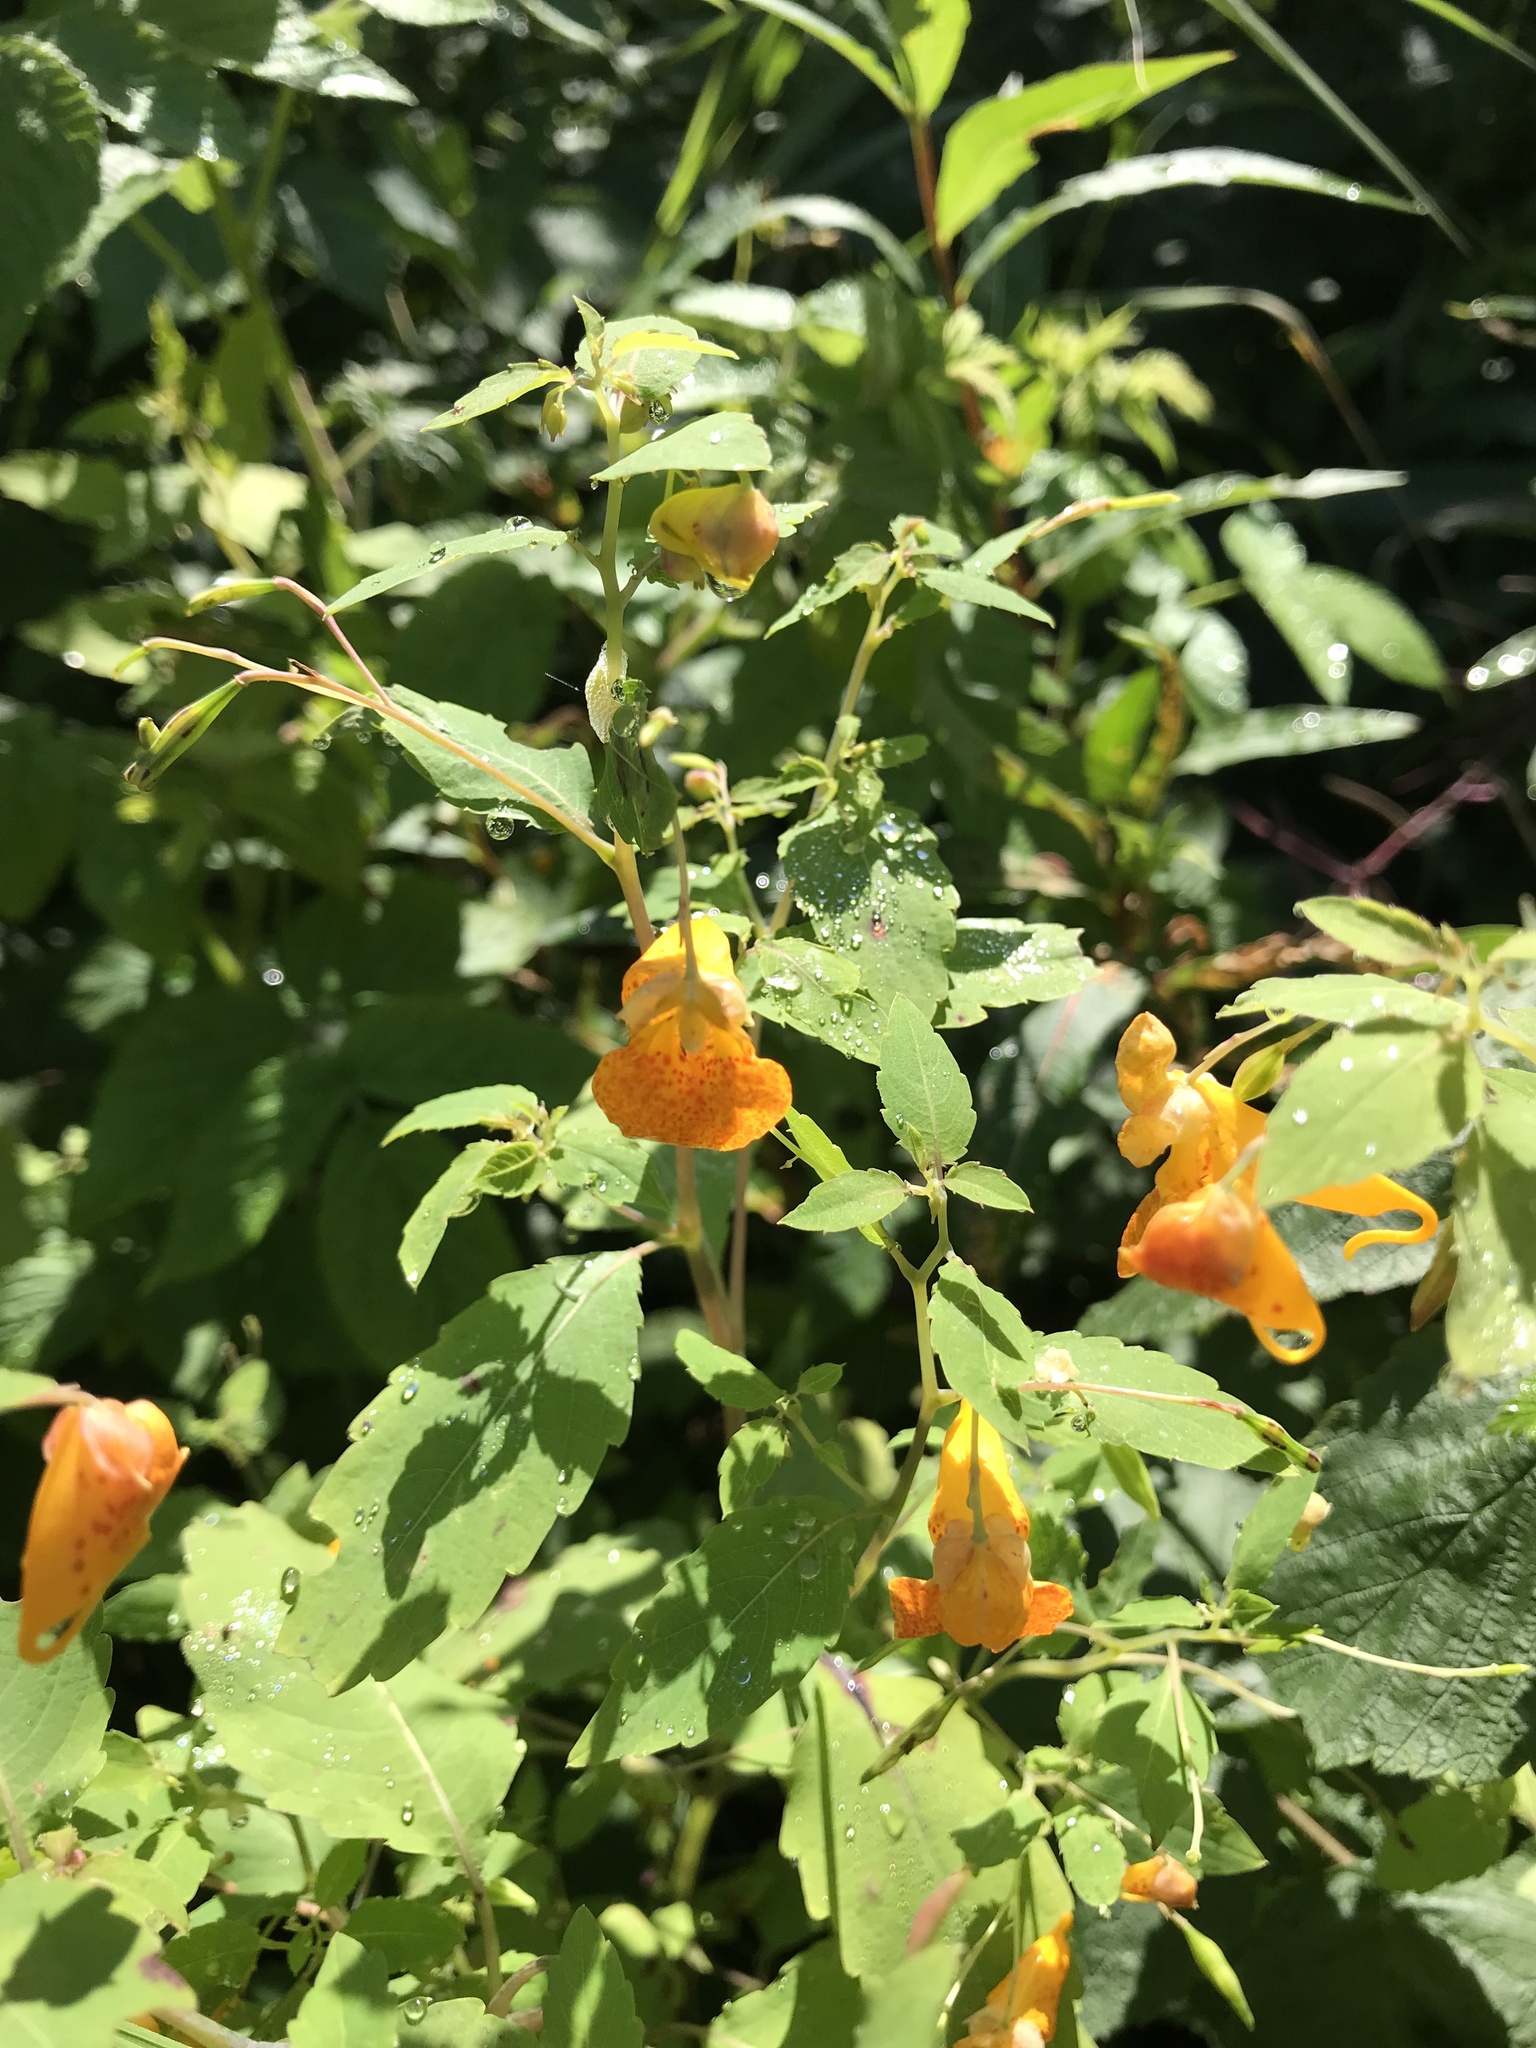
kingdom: Plantae
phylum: Tracheophyta
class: Magnoliopsida
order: Ericales
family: Balsaminaceae
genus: Impatiens
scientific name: Impatiens capensis
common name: Orange balsam
